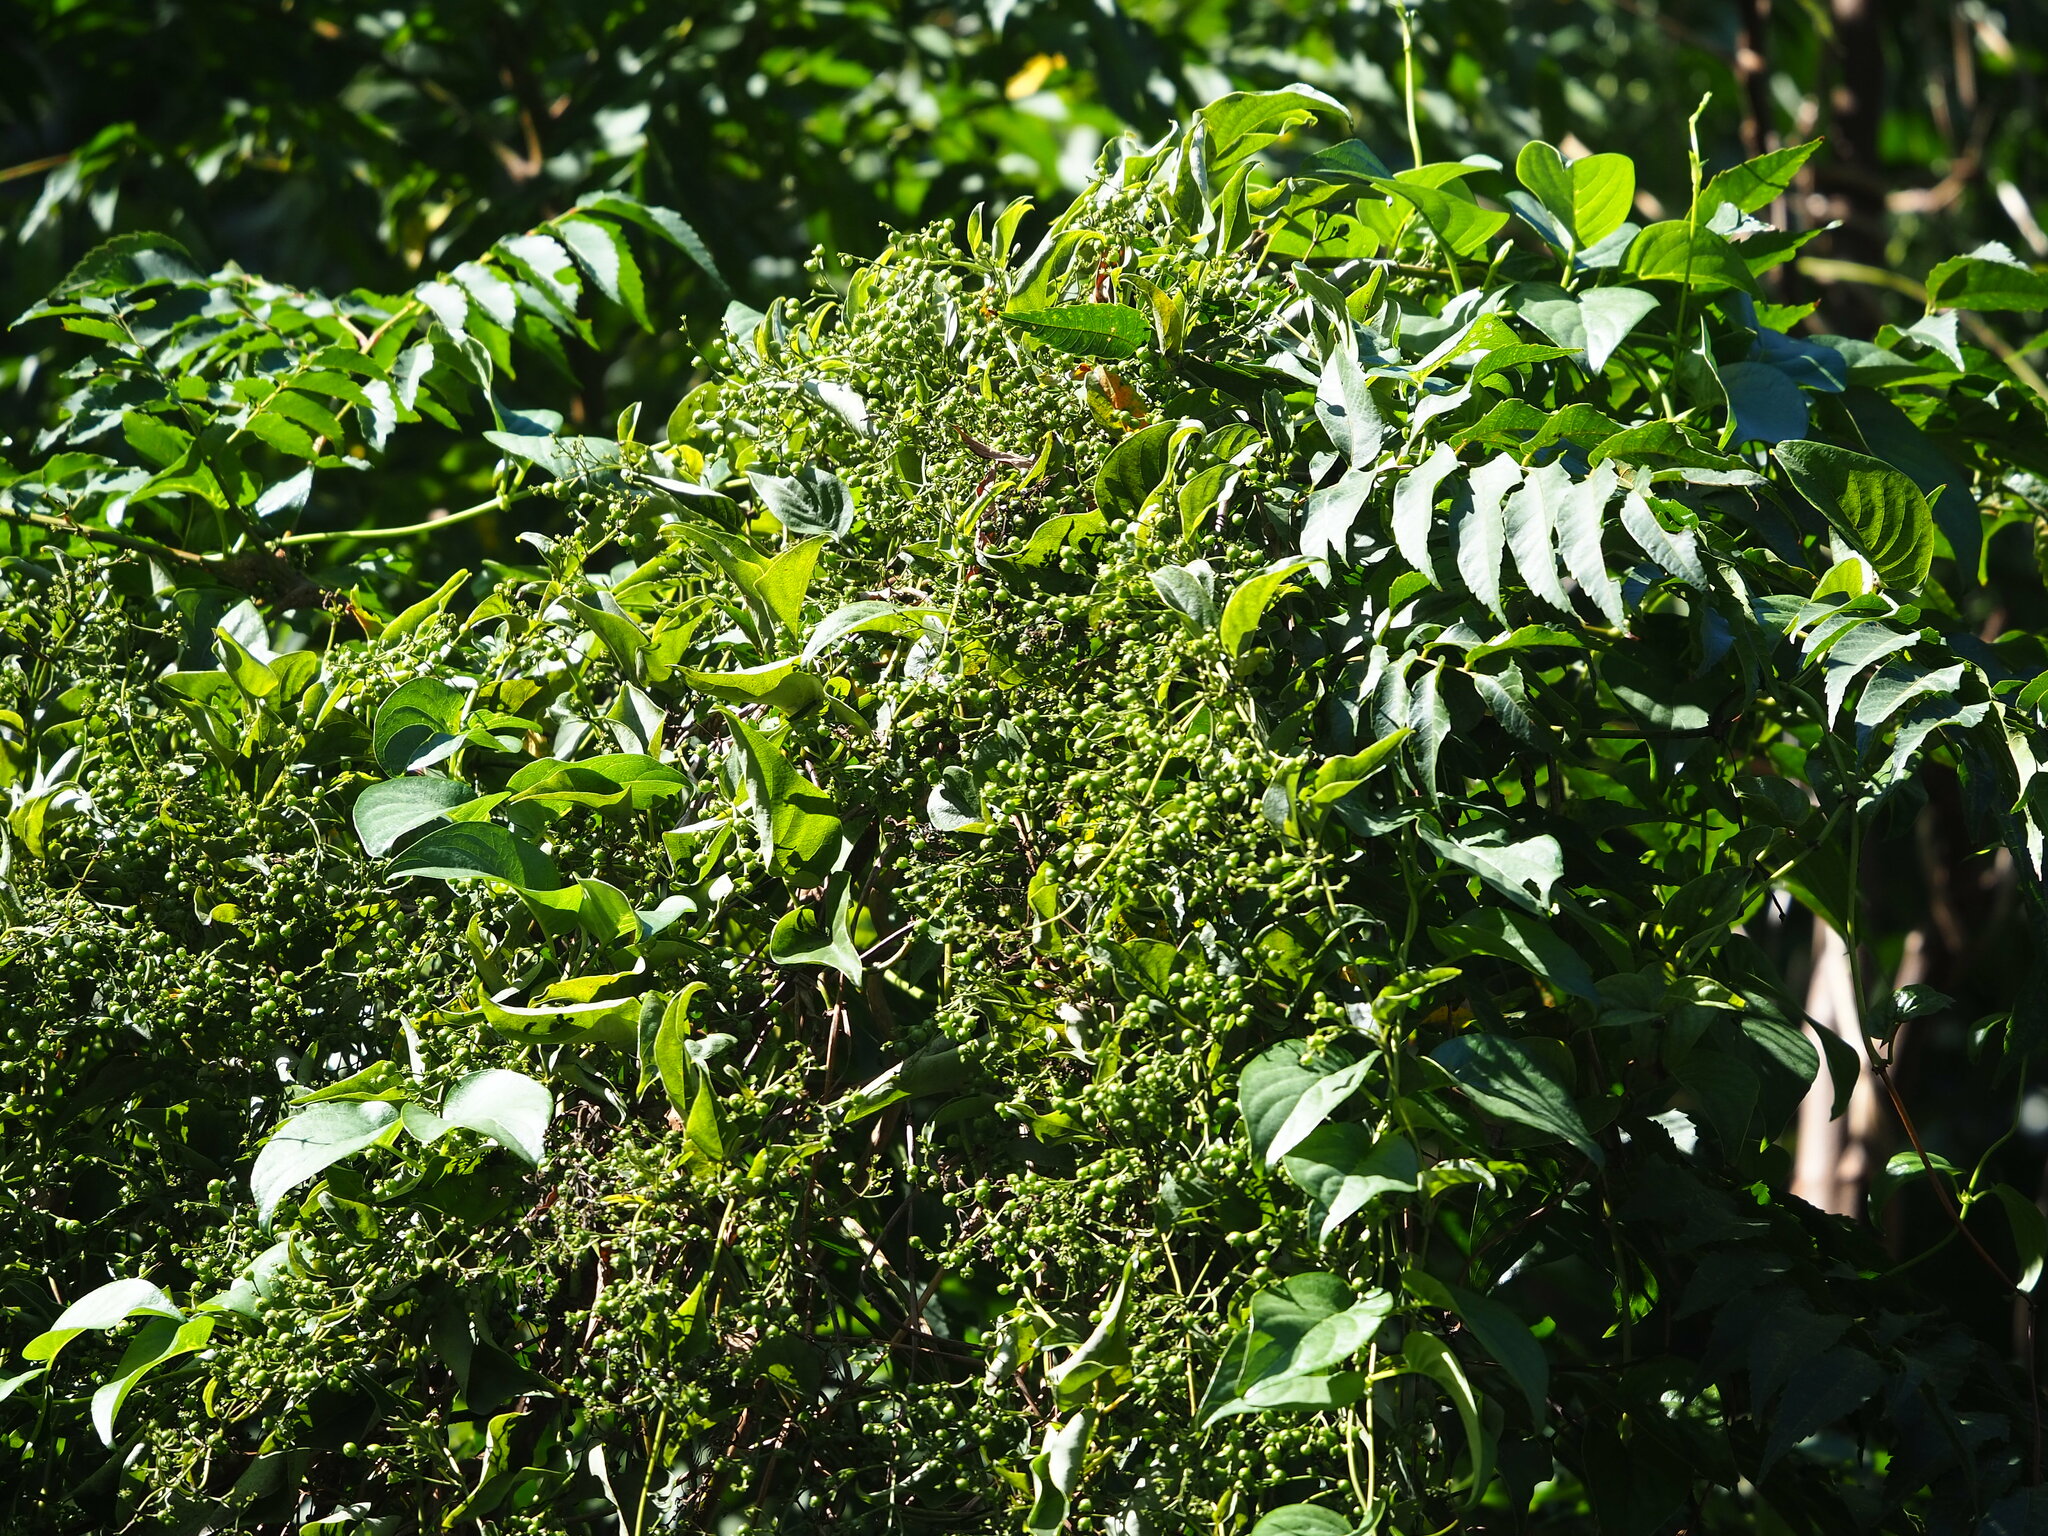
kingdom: Plantae
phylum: Tracheophyta
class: Magnoliopsida
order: Gentianales
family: Rubiaceae
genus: Paederia
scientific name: Paederia foetida
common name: Stinkvine
